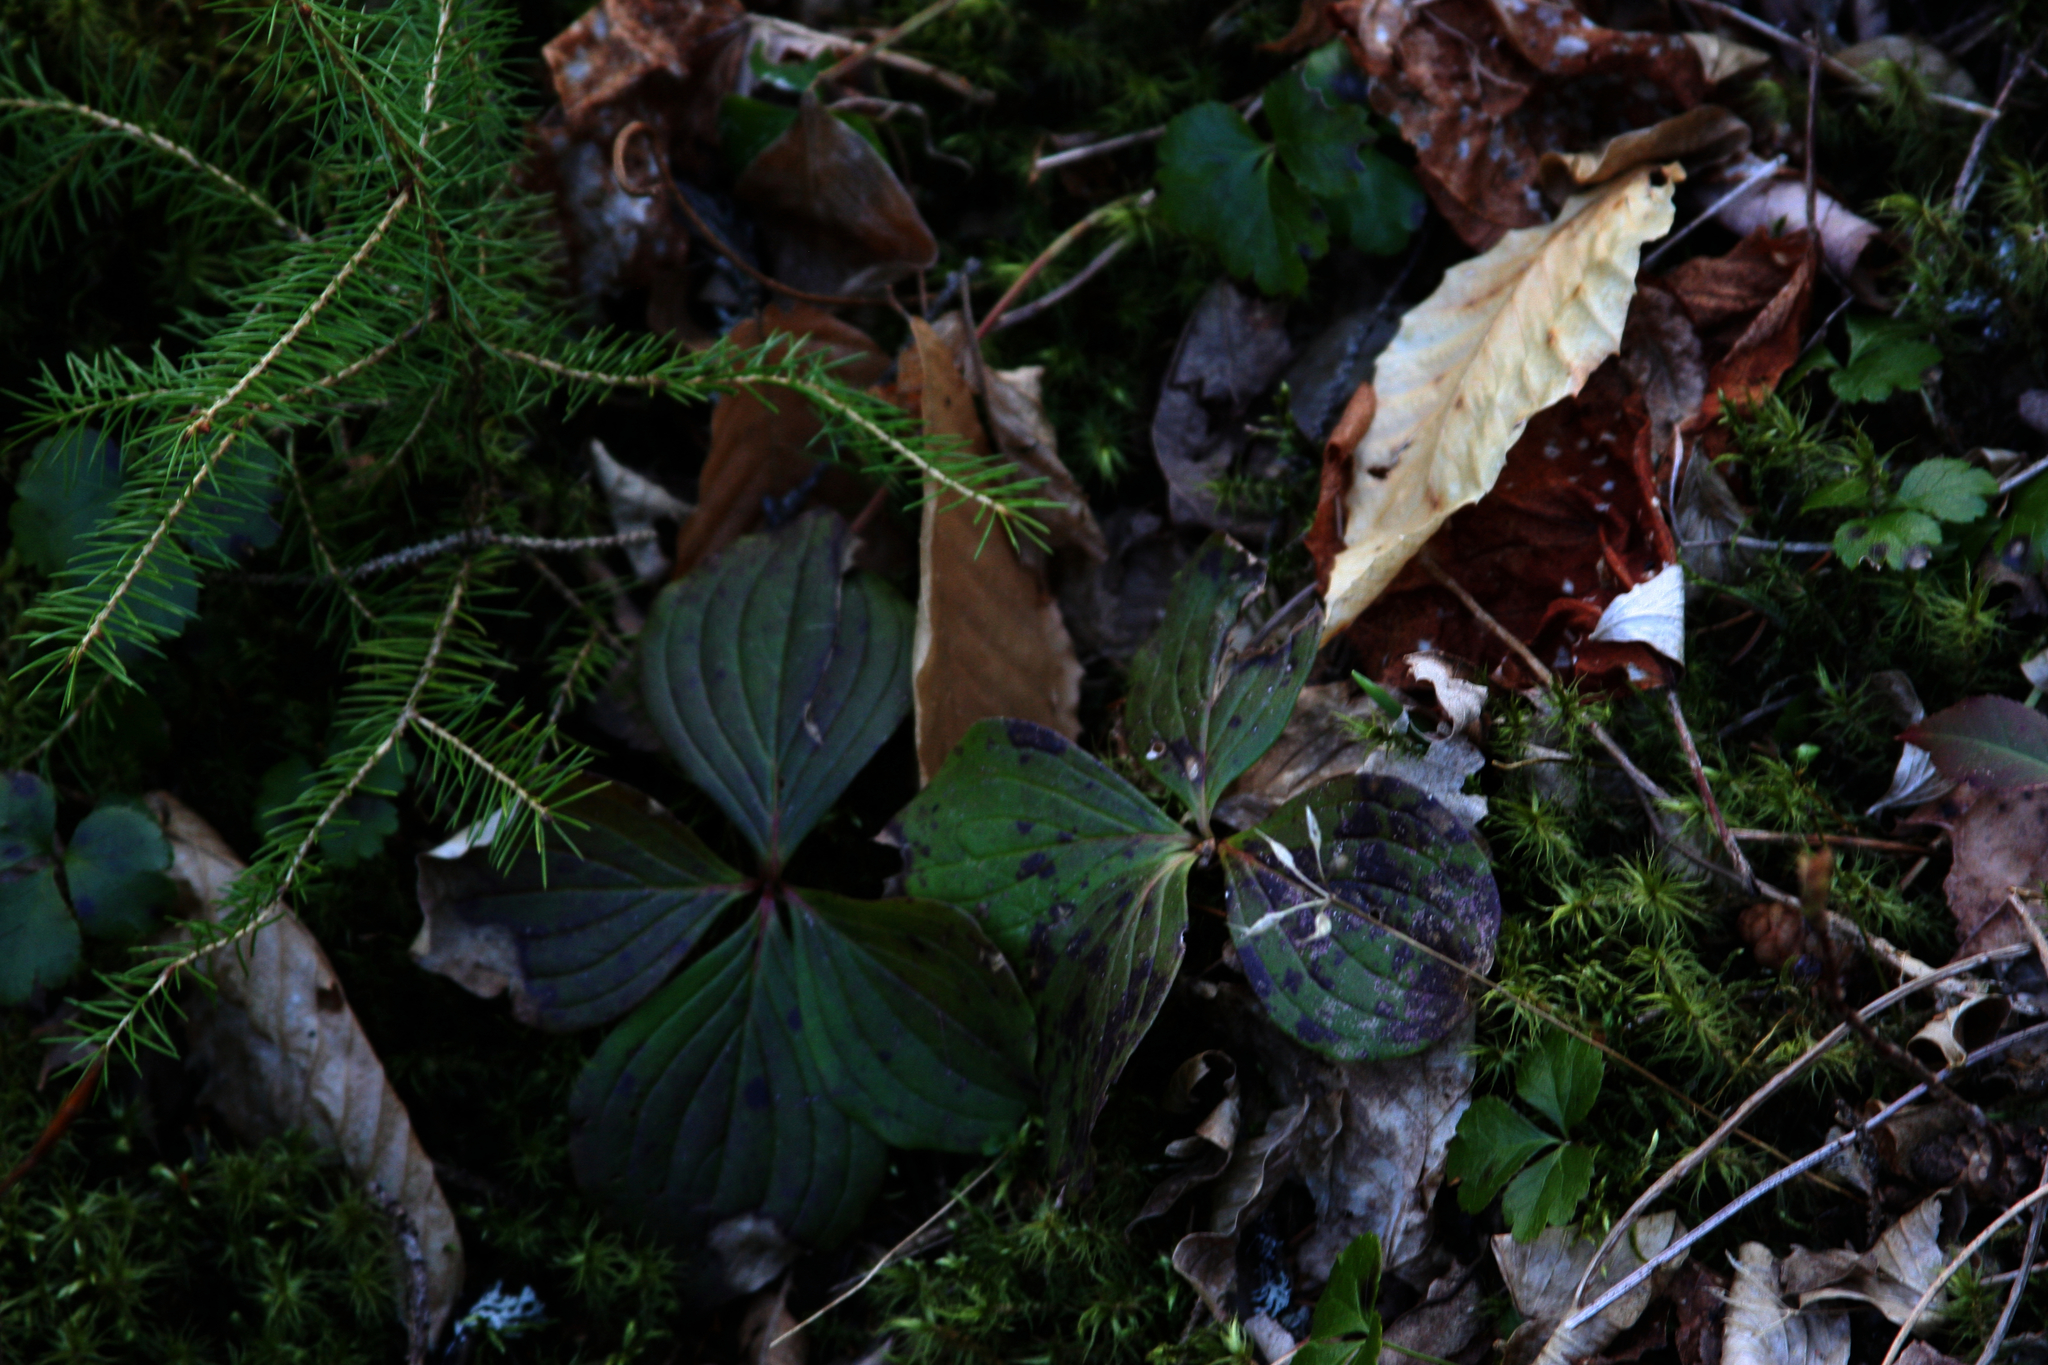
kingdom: Plantae
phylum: Tracheophyta
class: Magnoliopsida
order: Cornales
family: Cornaceae
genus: Cornus
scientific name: Cornus canadensis
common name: Creeping dogwood
